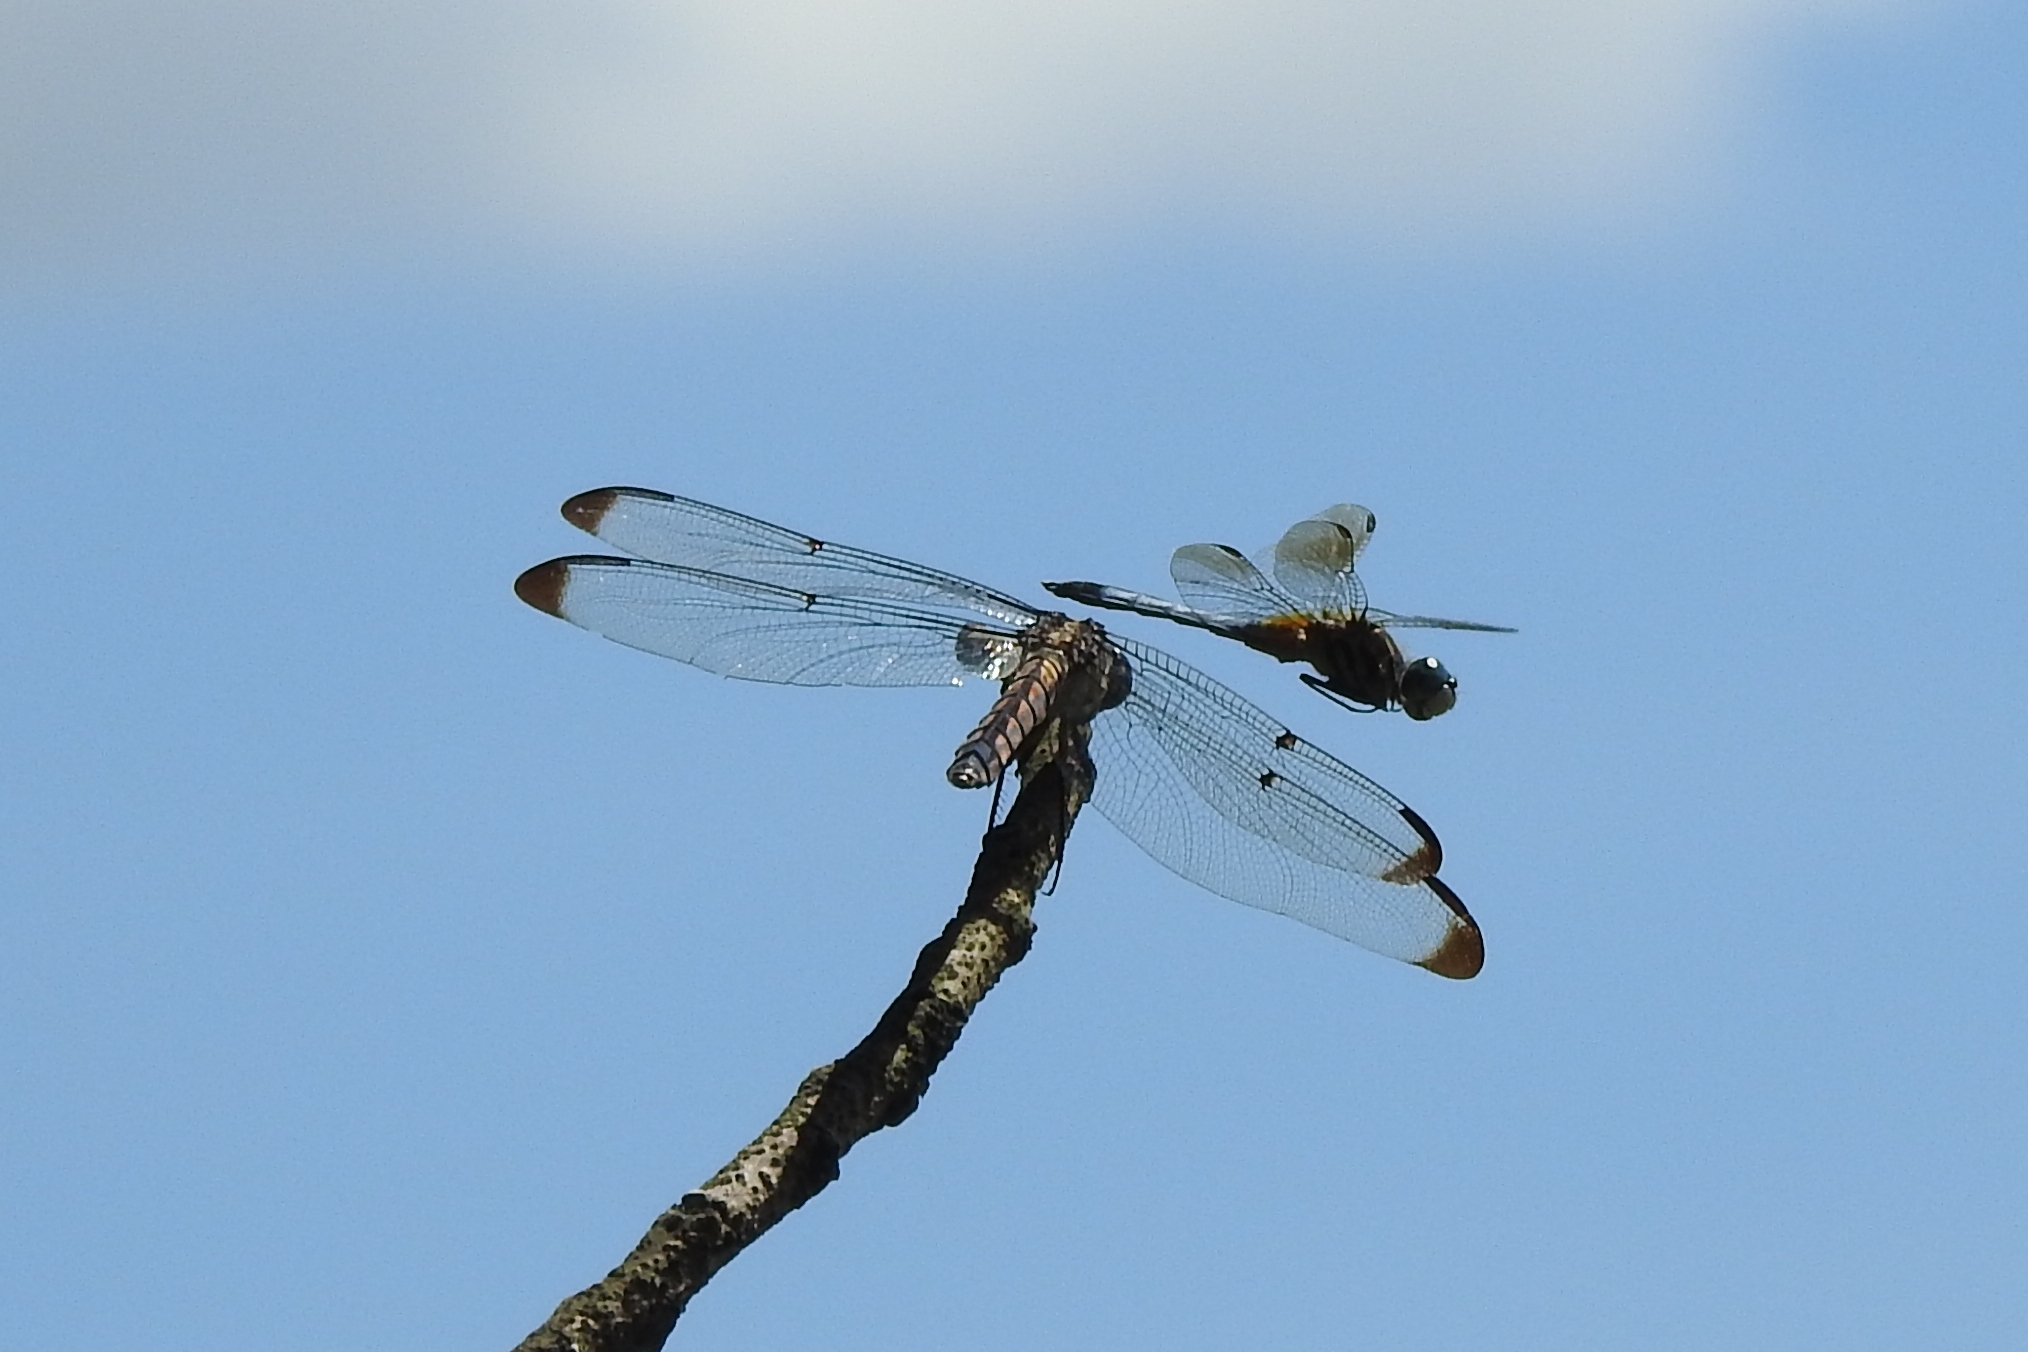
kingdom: Animalia
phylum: Arthropoda
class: Insecta
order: Odonata
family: Libellulidae
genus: Libellula
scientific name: Libellula vibrans
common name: Great blue skimmer
